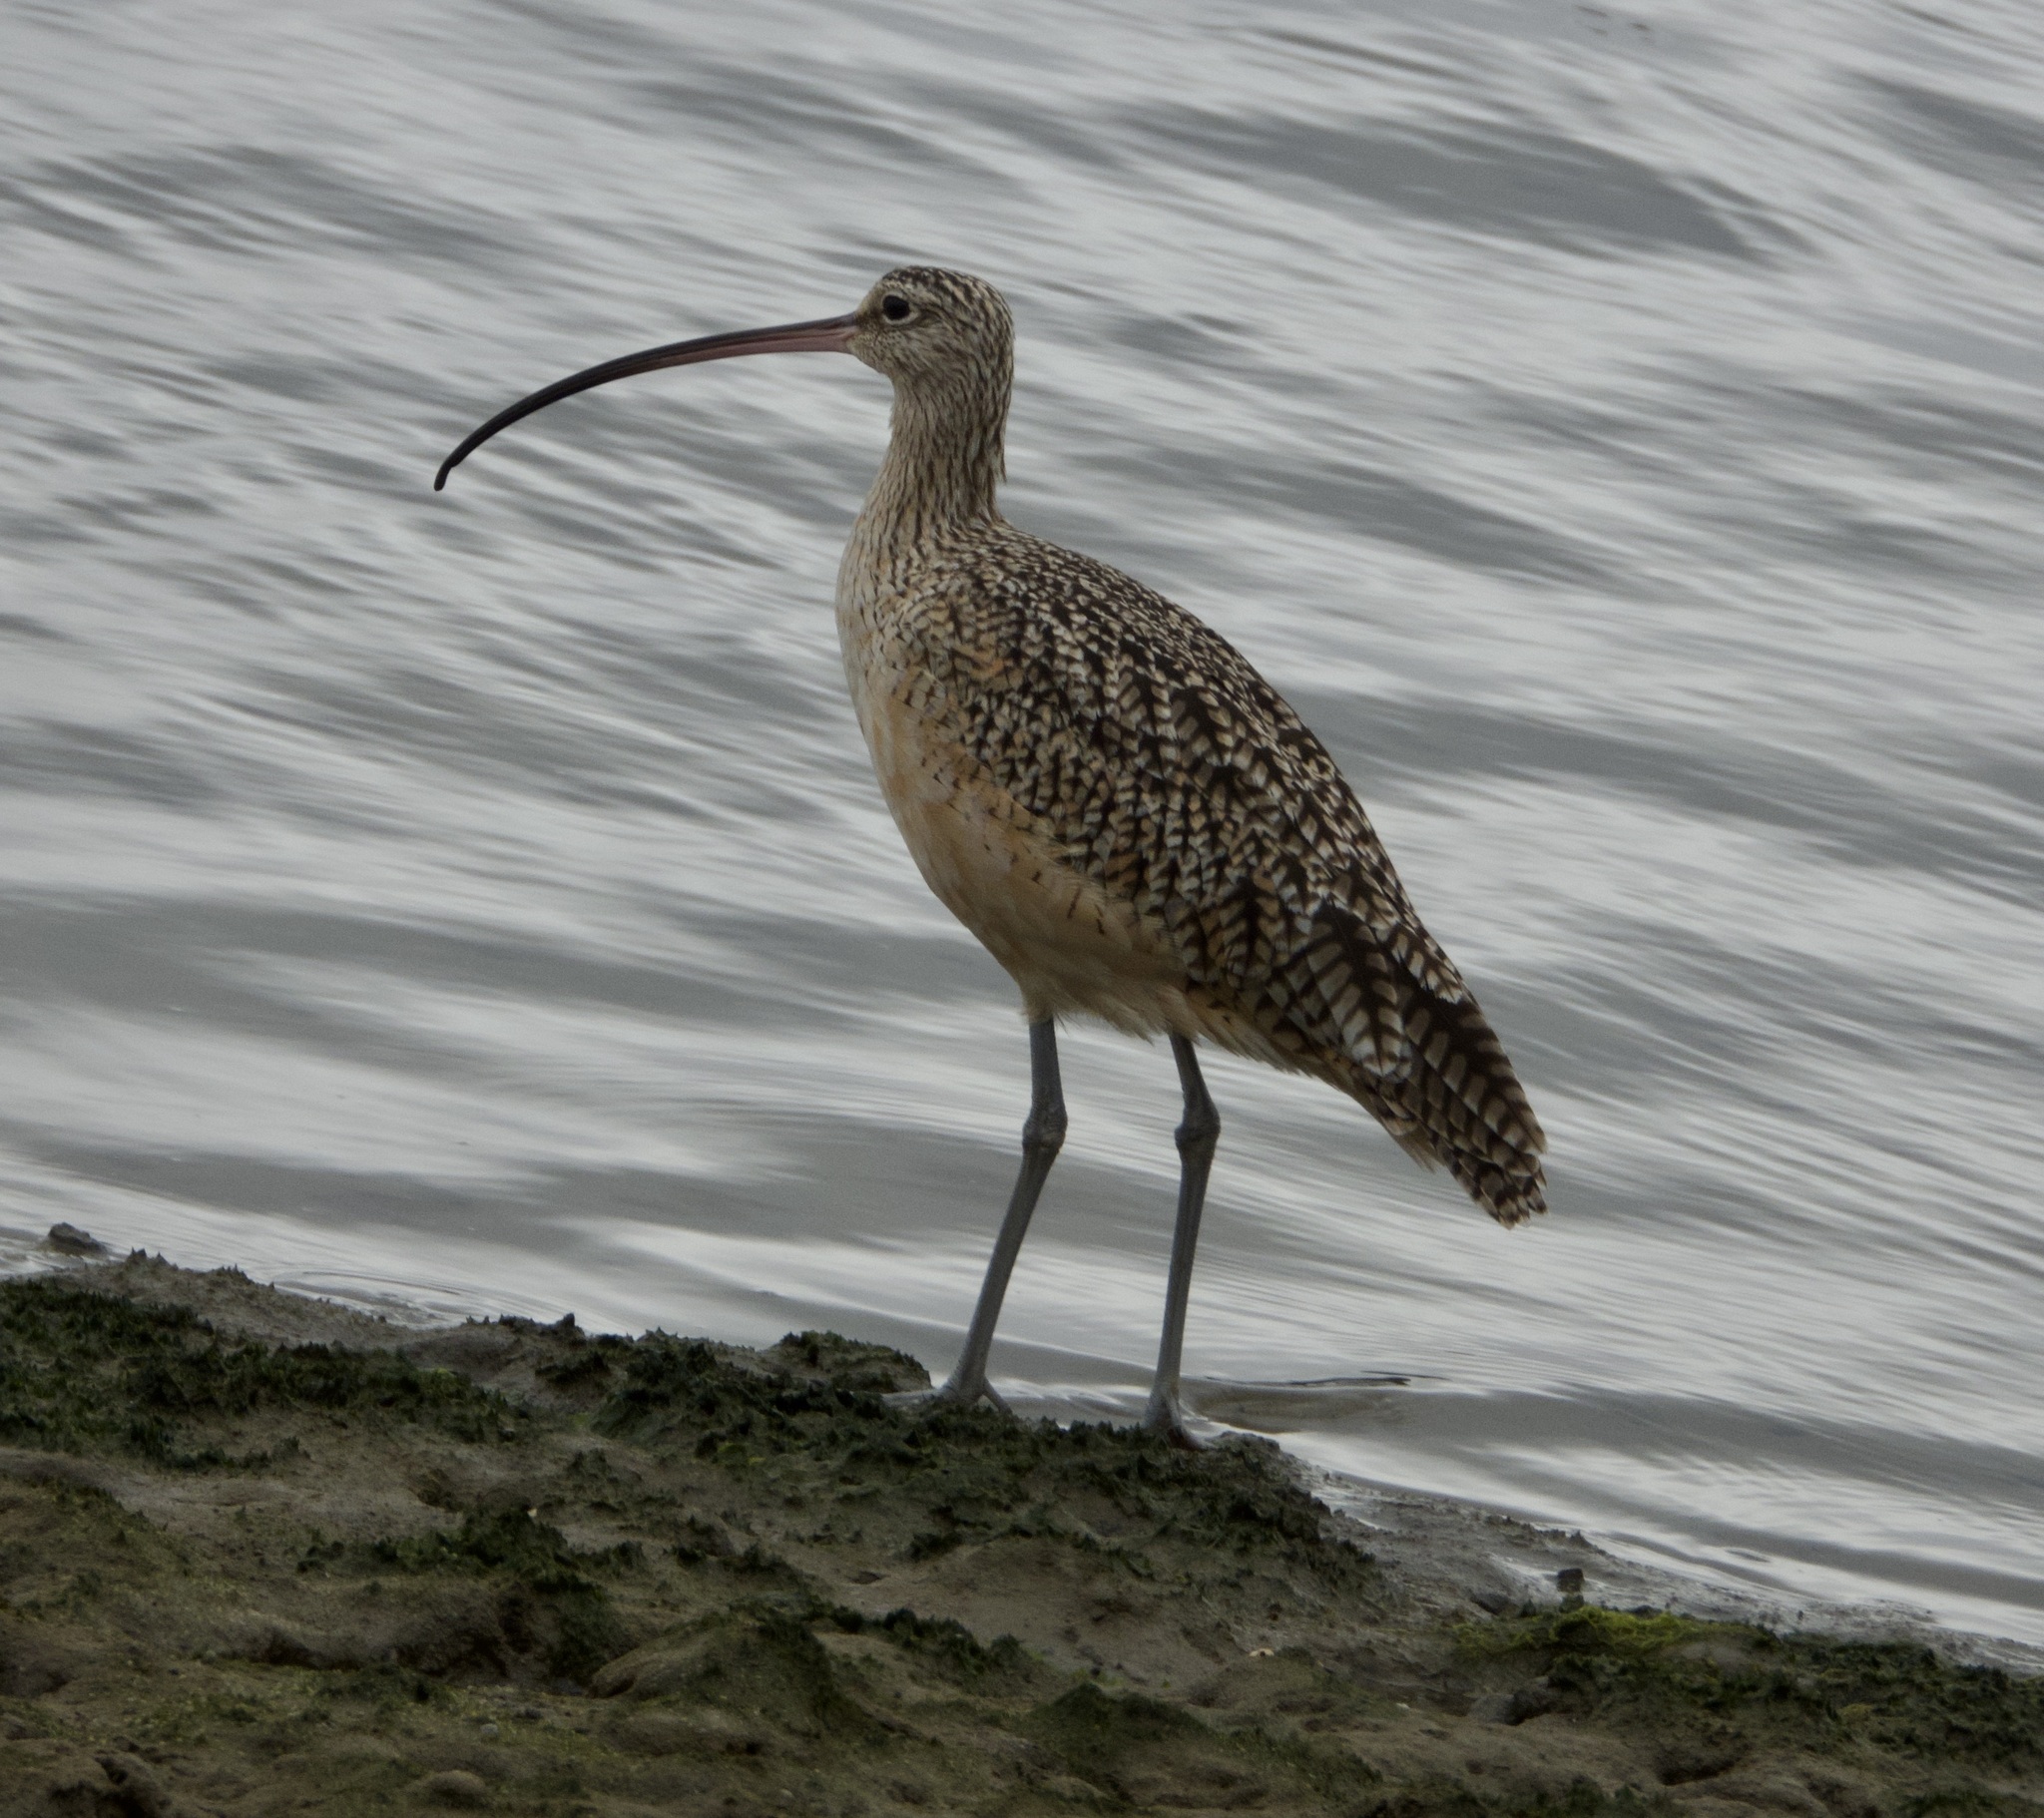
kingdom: Animalia
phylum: Chordata
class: Aves
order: Charadriiformes
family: Scolopacidae
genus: Numenius
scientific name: Numenius americanus
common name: Long-billed curlew
